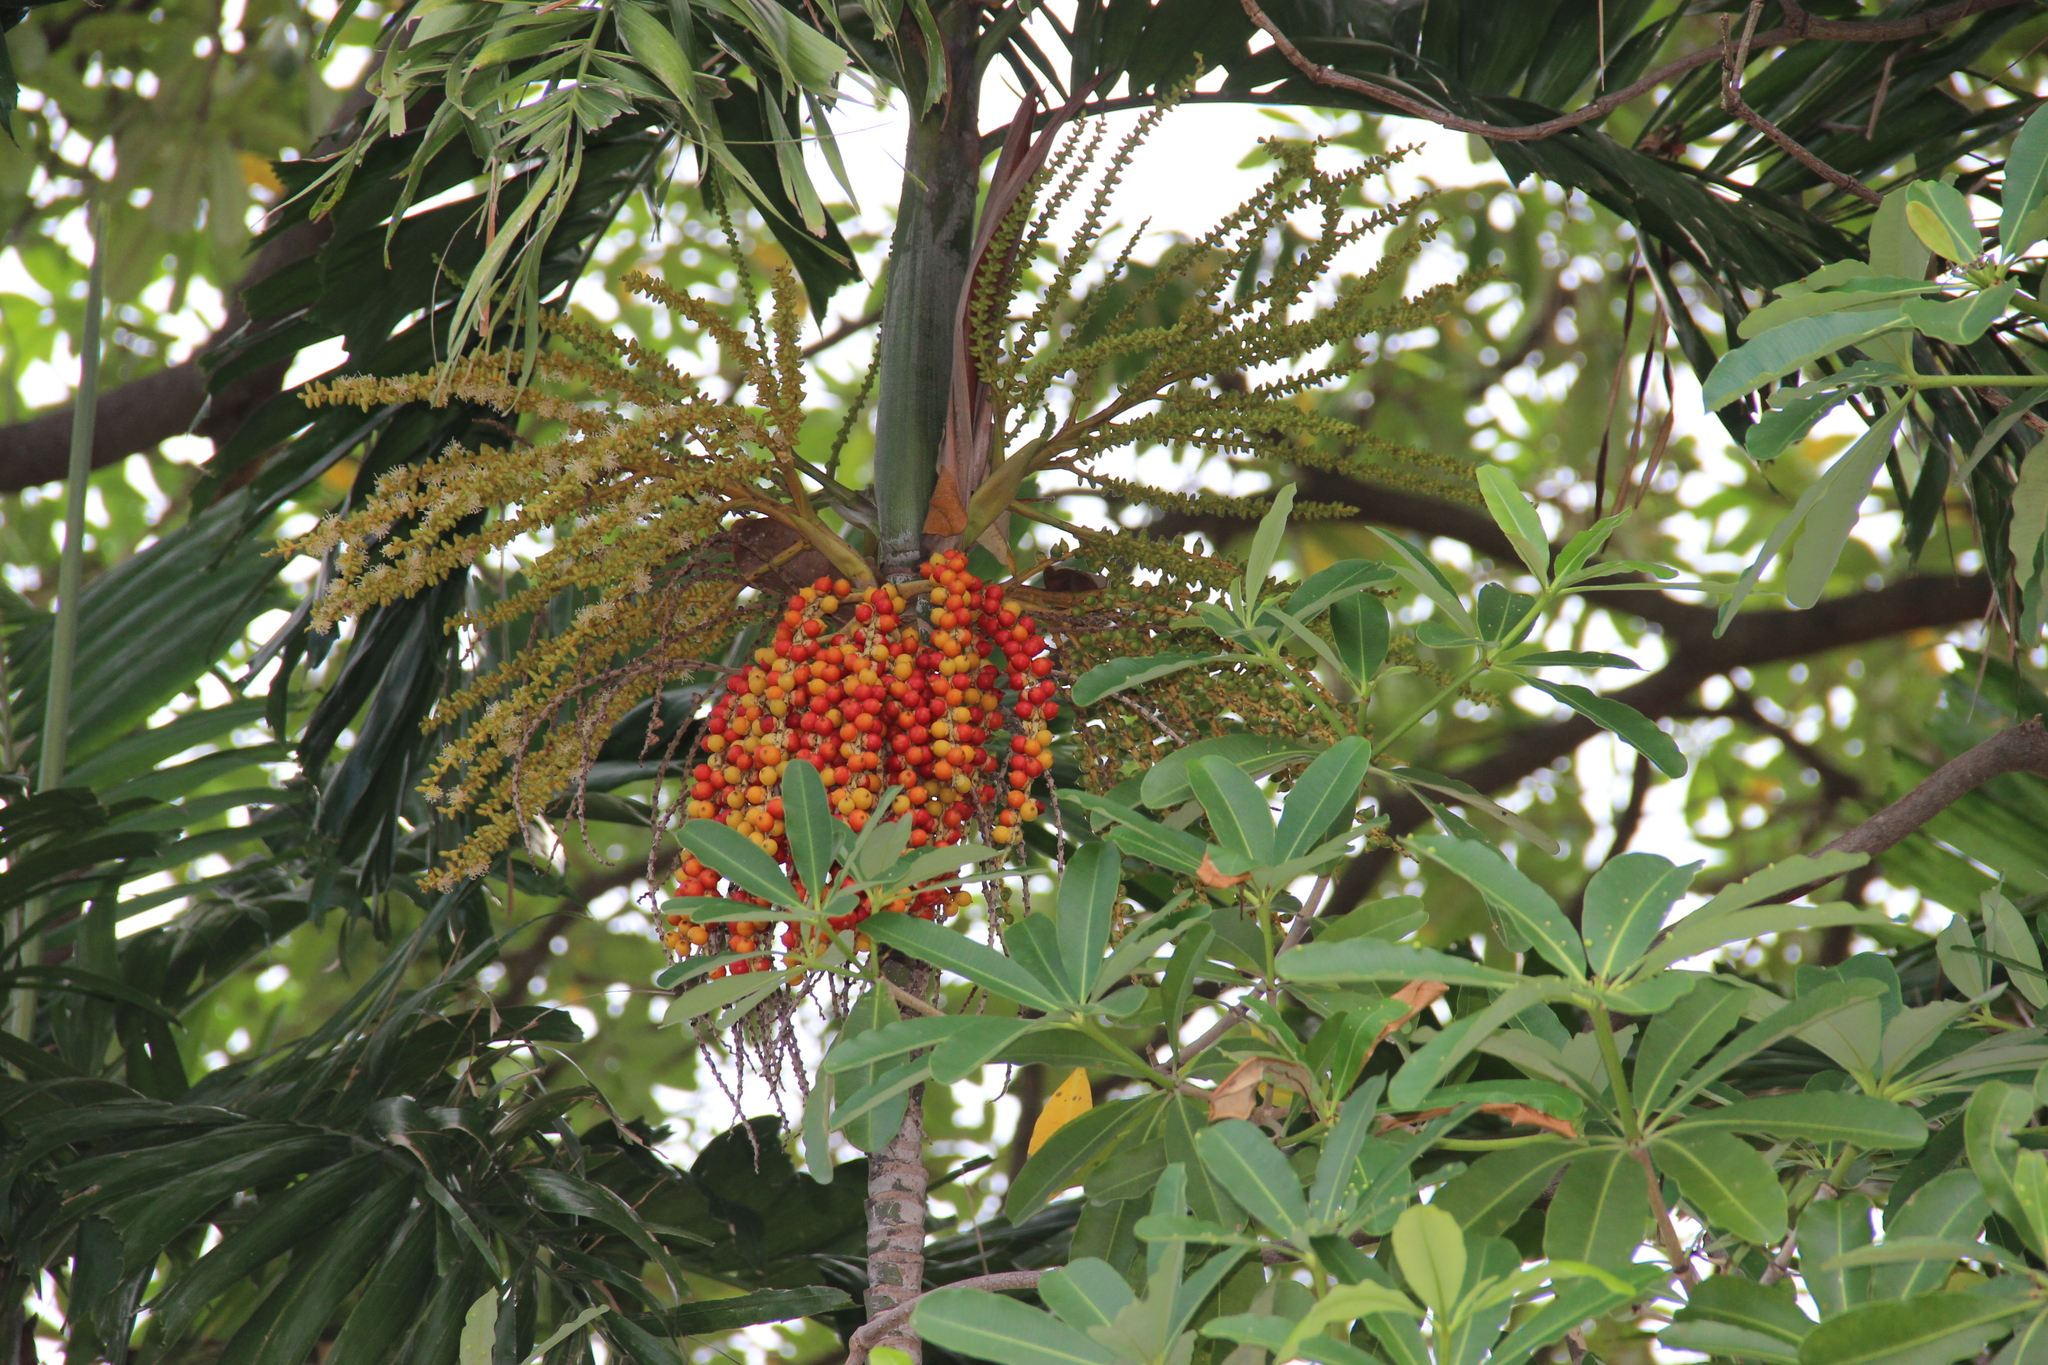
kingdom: Plantae
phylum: Tracheophyta
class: Liliopsida
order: Arecales
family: Arecaceae
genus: Ptychosperma
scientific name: Ptychosperma macarthurii
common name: Macarthur palm
